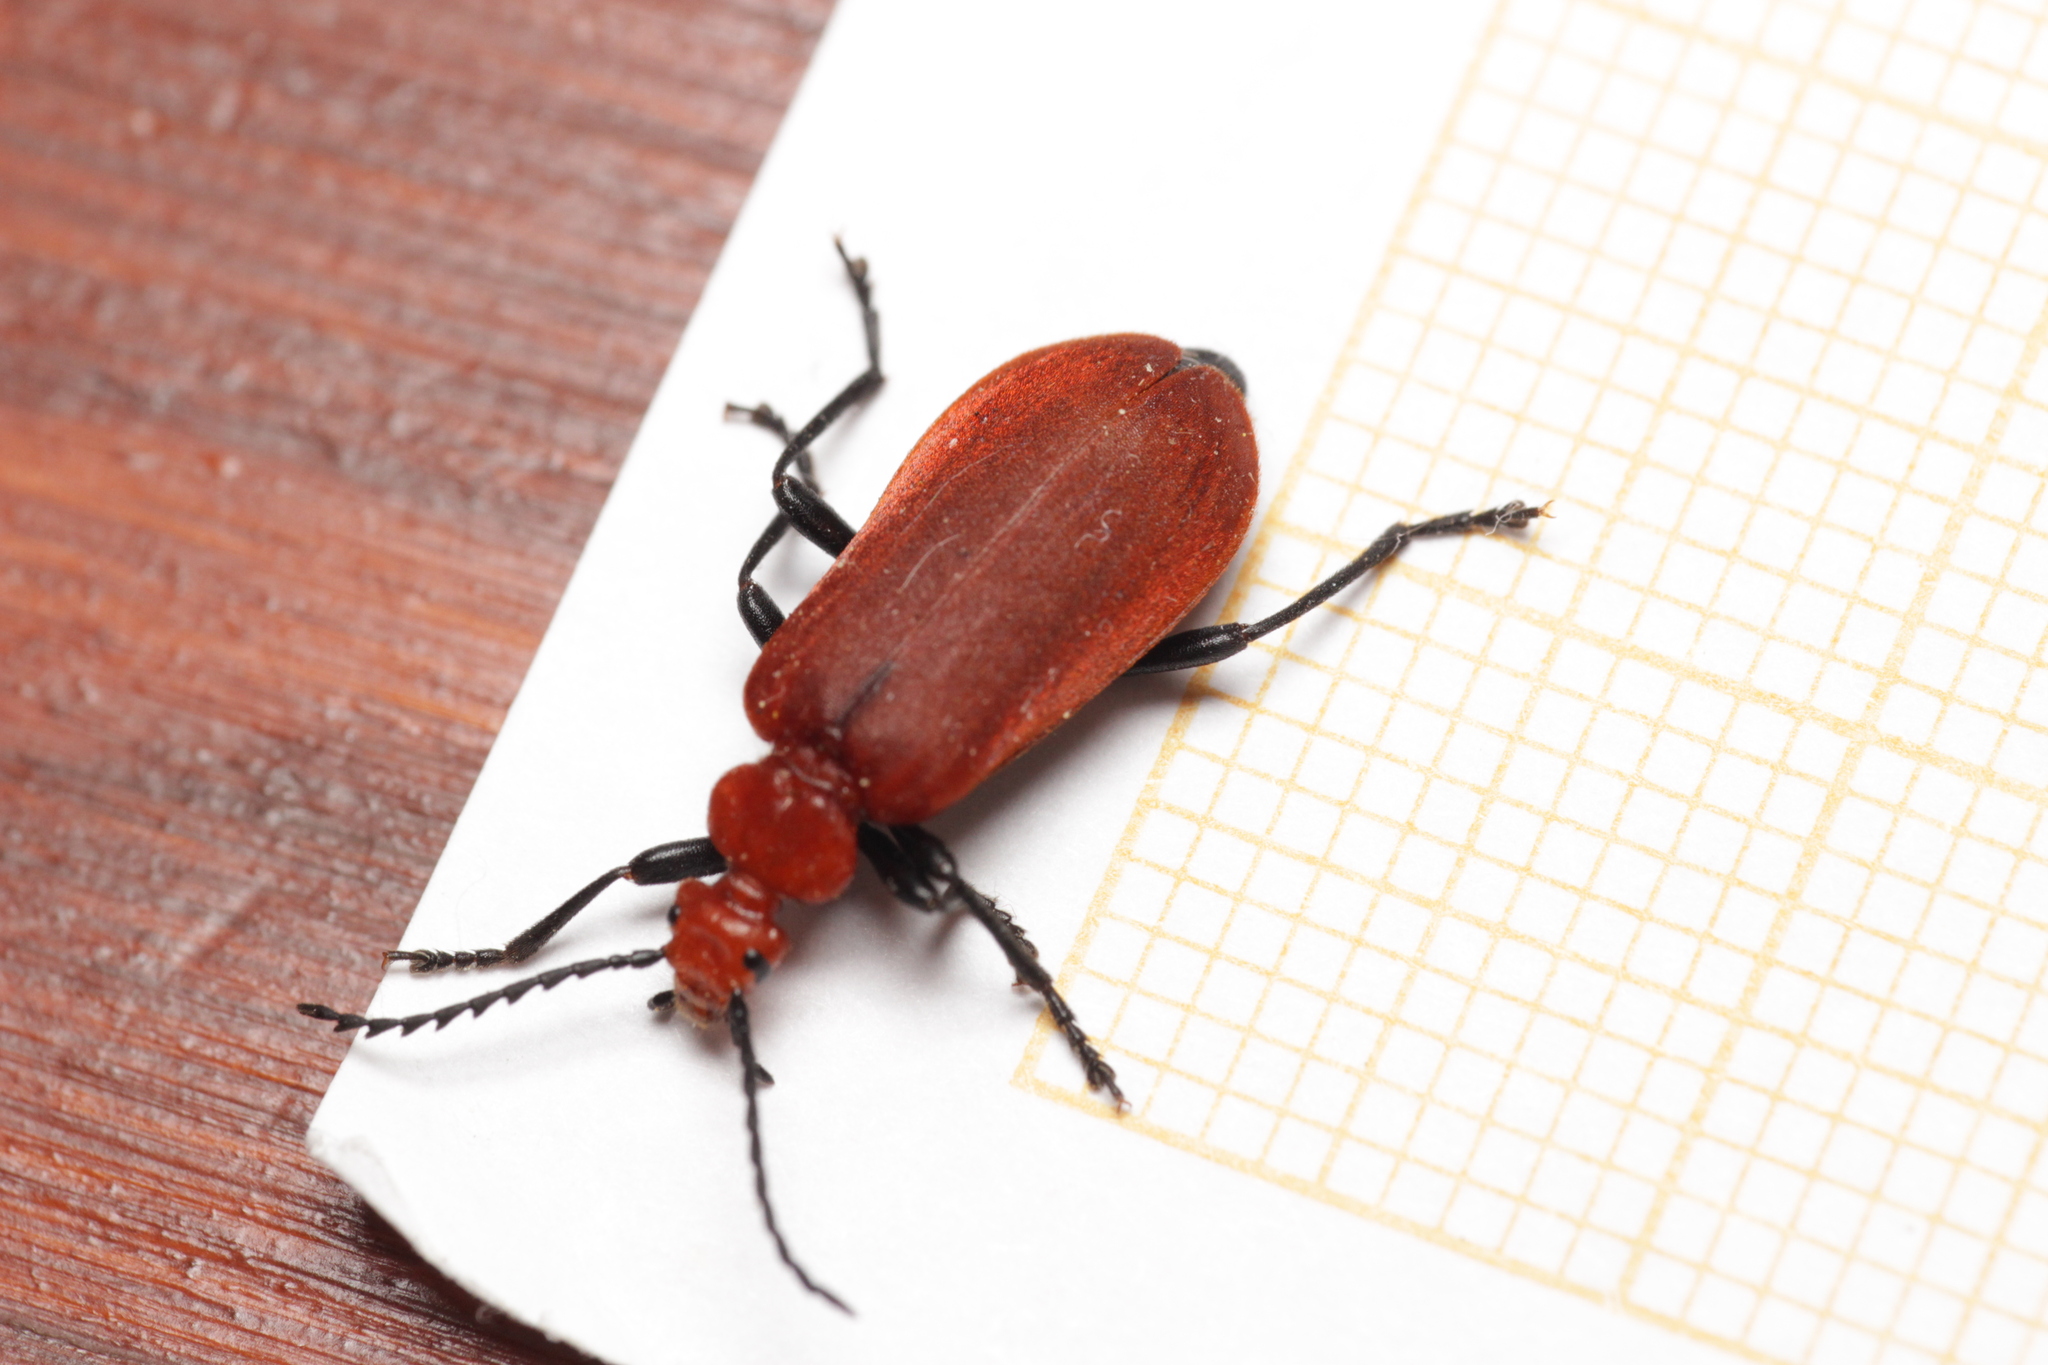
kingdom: Animalia
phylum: Arthropoda
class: Insecta
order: Coleoptera
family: Pyrochroidae
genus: Pyrochroa
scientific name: Pyrochroa serraticornis
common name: Red-headed cardinal beetle
